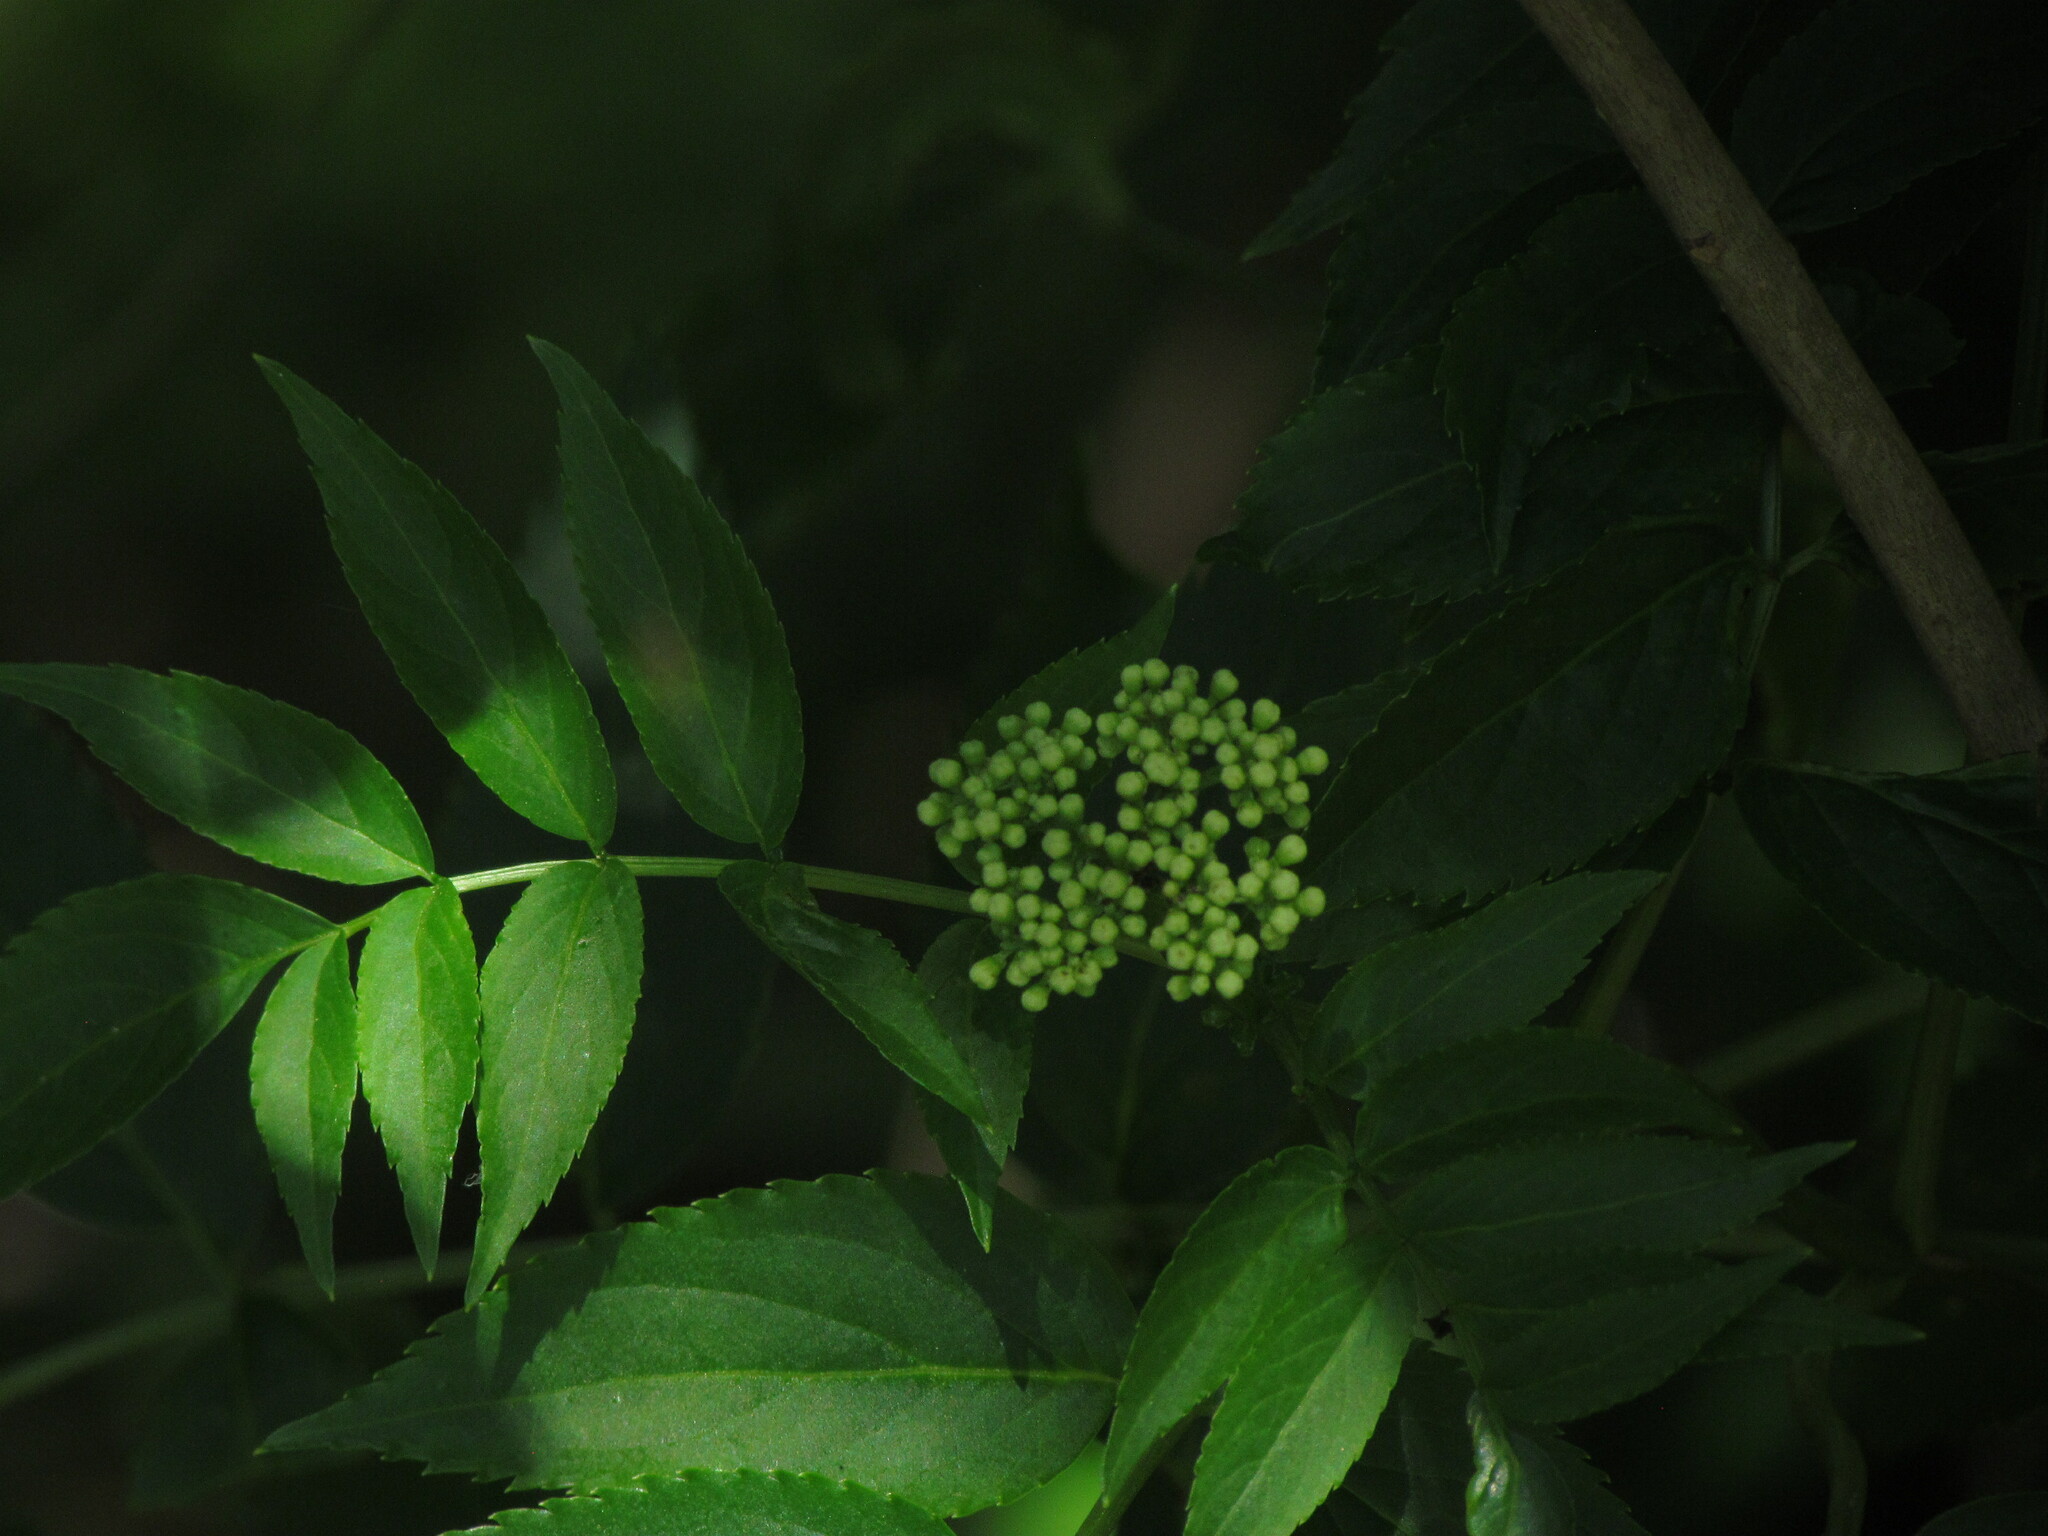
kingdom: Plantae
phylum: Tracheophyta
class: Magnoliopsida
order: Dipsacales
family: Viburnaceae
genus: Sambucus
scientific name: Sambucus australis
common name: Southern elder
